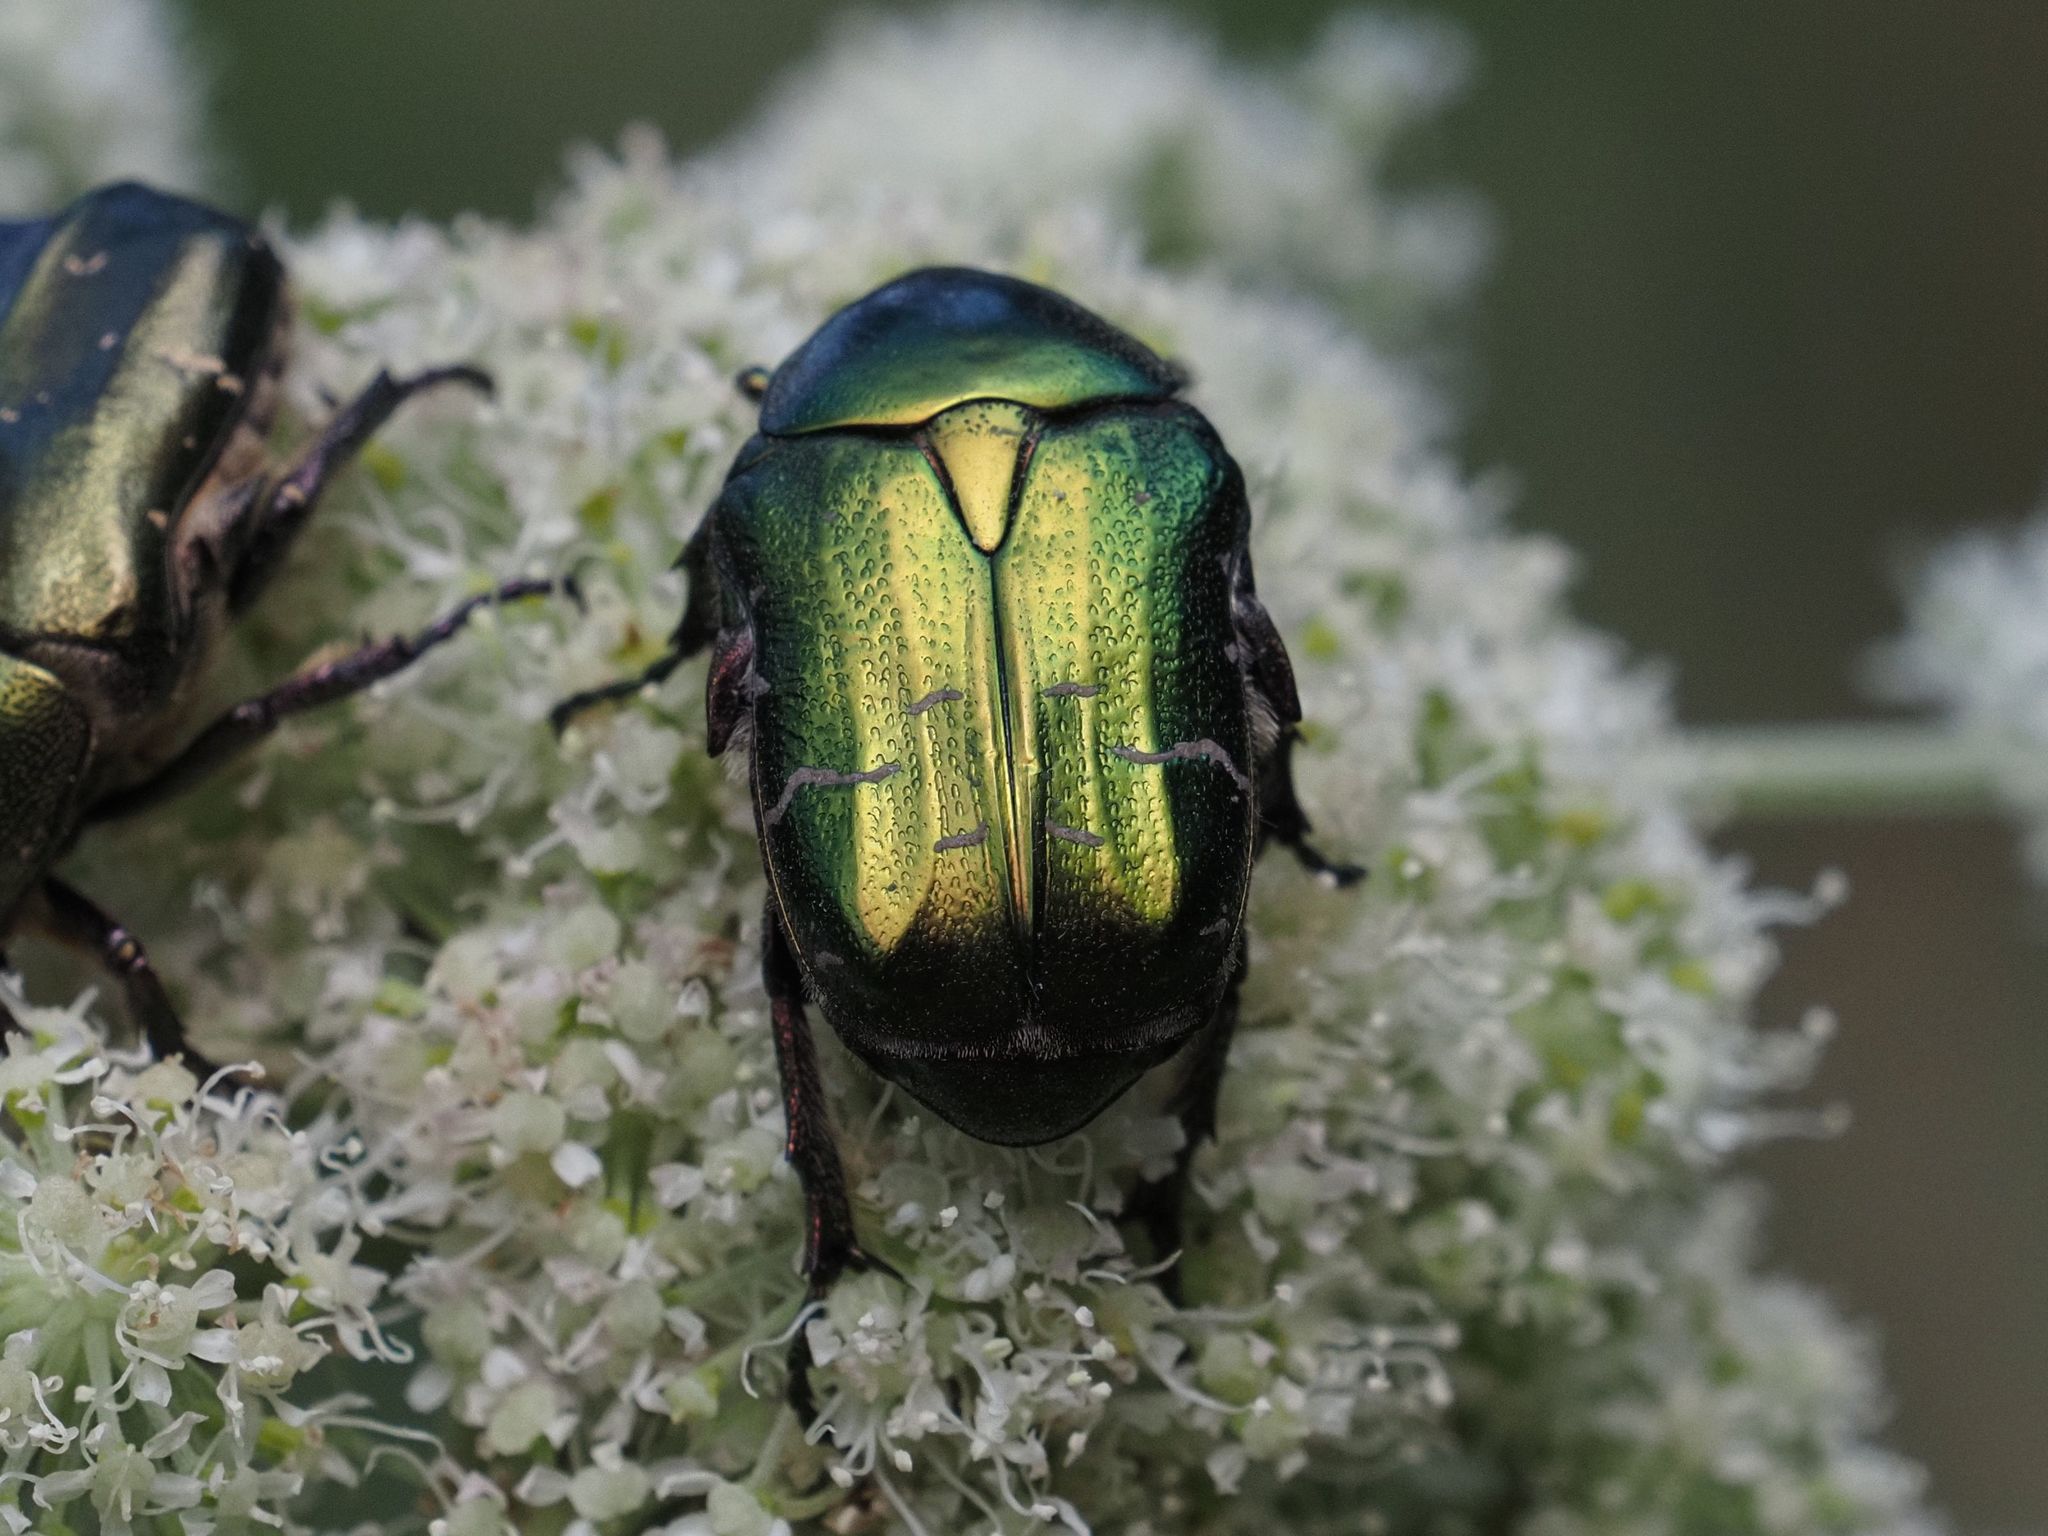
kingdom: Animalia
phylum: Arthropoda
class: Insecta
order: Coleoptera
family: Scarabaeidae
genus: Cetonia
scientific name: Cetonia aurata
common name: Rose chafer
